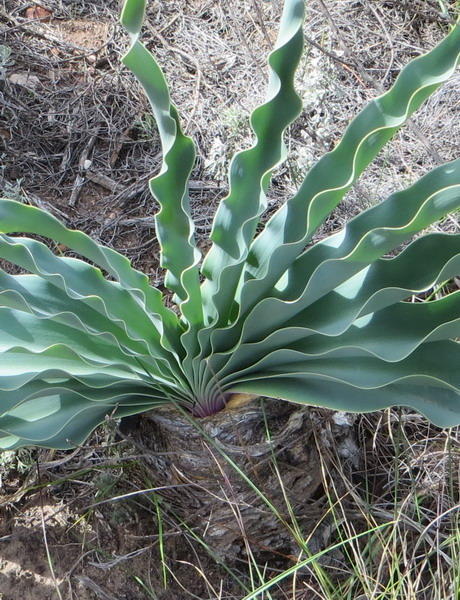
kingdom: Plantae
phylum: Tracheophyta
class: Liliopsida
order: Asparagales
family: Amaryllidaceae
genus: Boophone
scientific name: Boophone disticha
